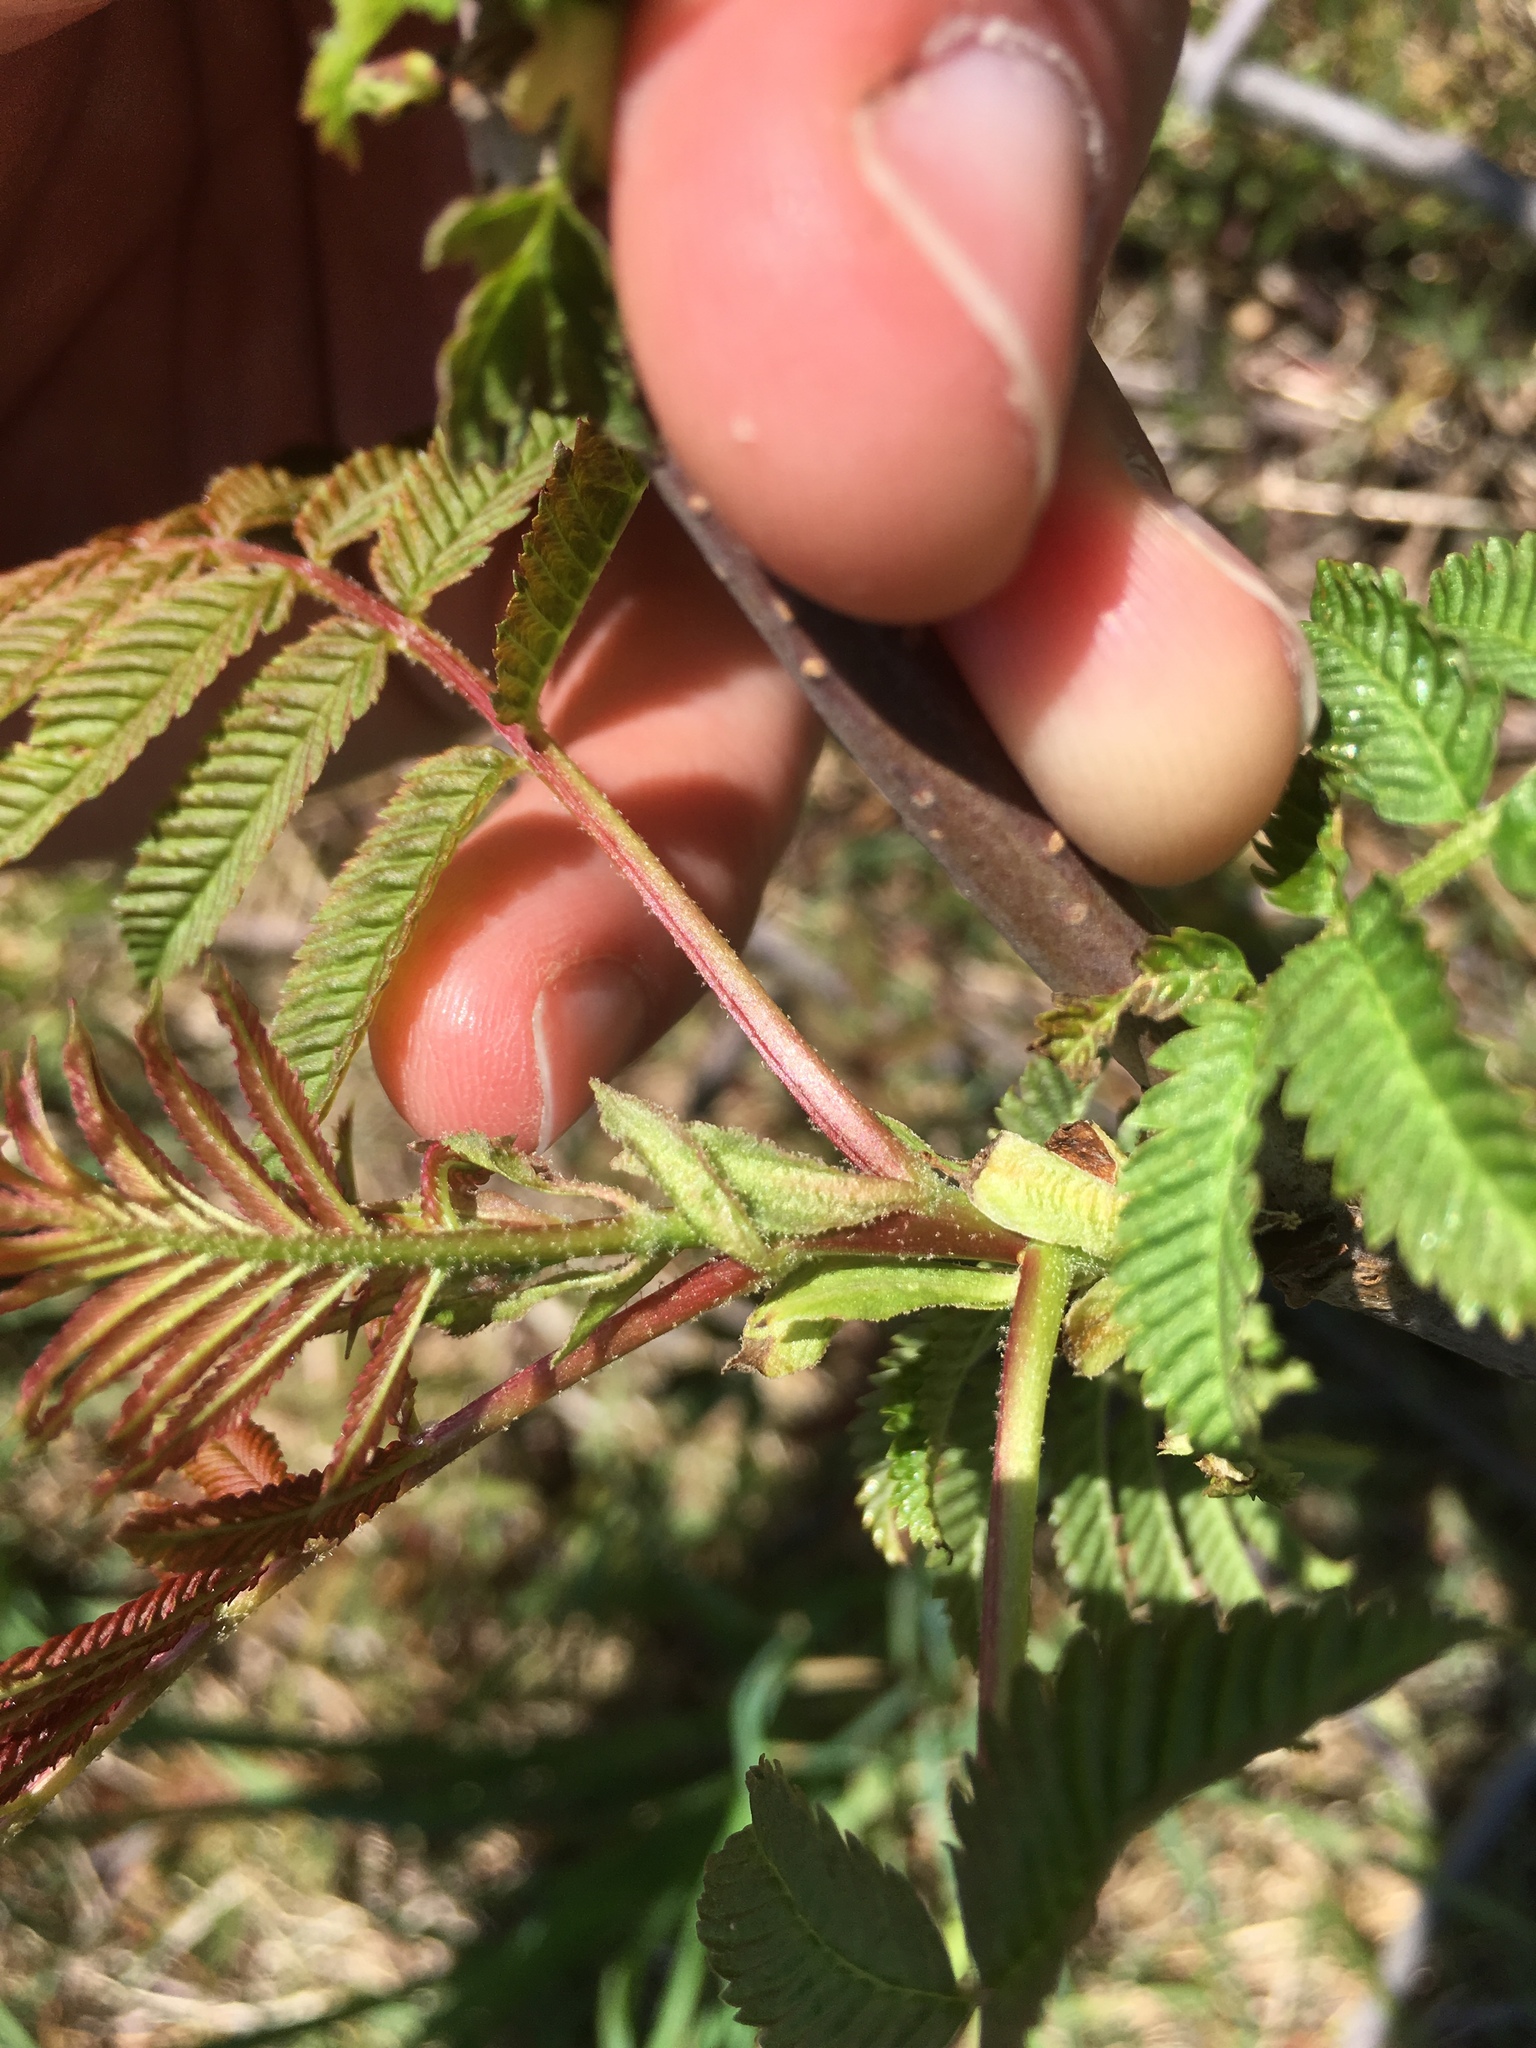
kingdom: Plantae
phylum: Tracheophyta
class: Magnoliopsida
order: Sapindales
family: Anacardiaceae
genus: Rhus
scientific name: Rhus glabra
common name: Scarlet sumac
